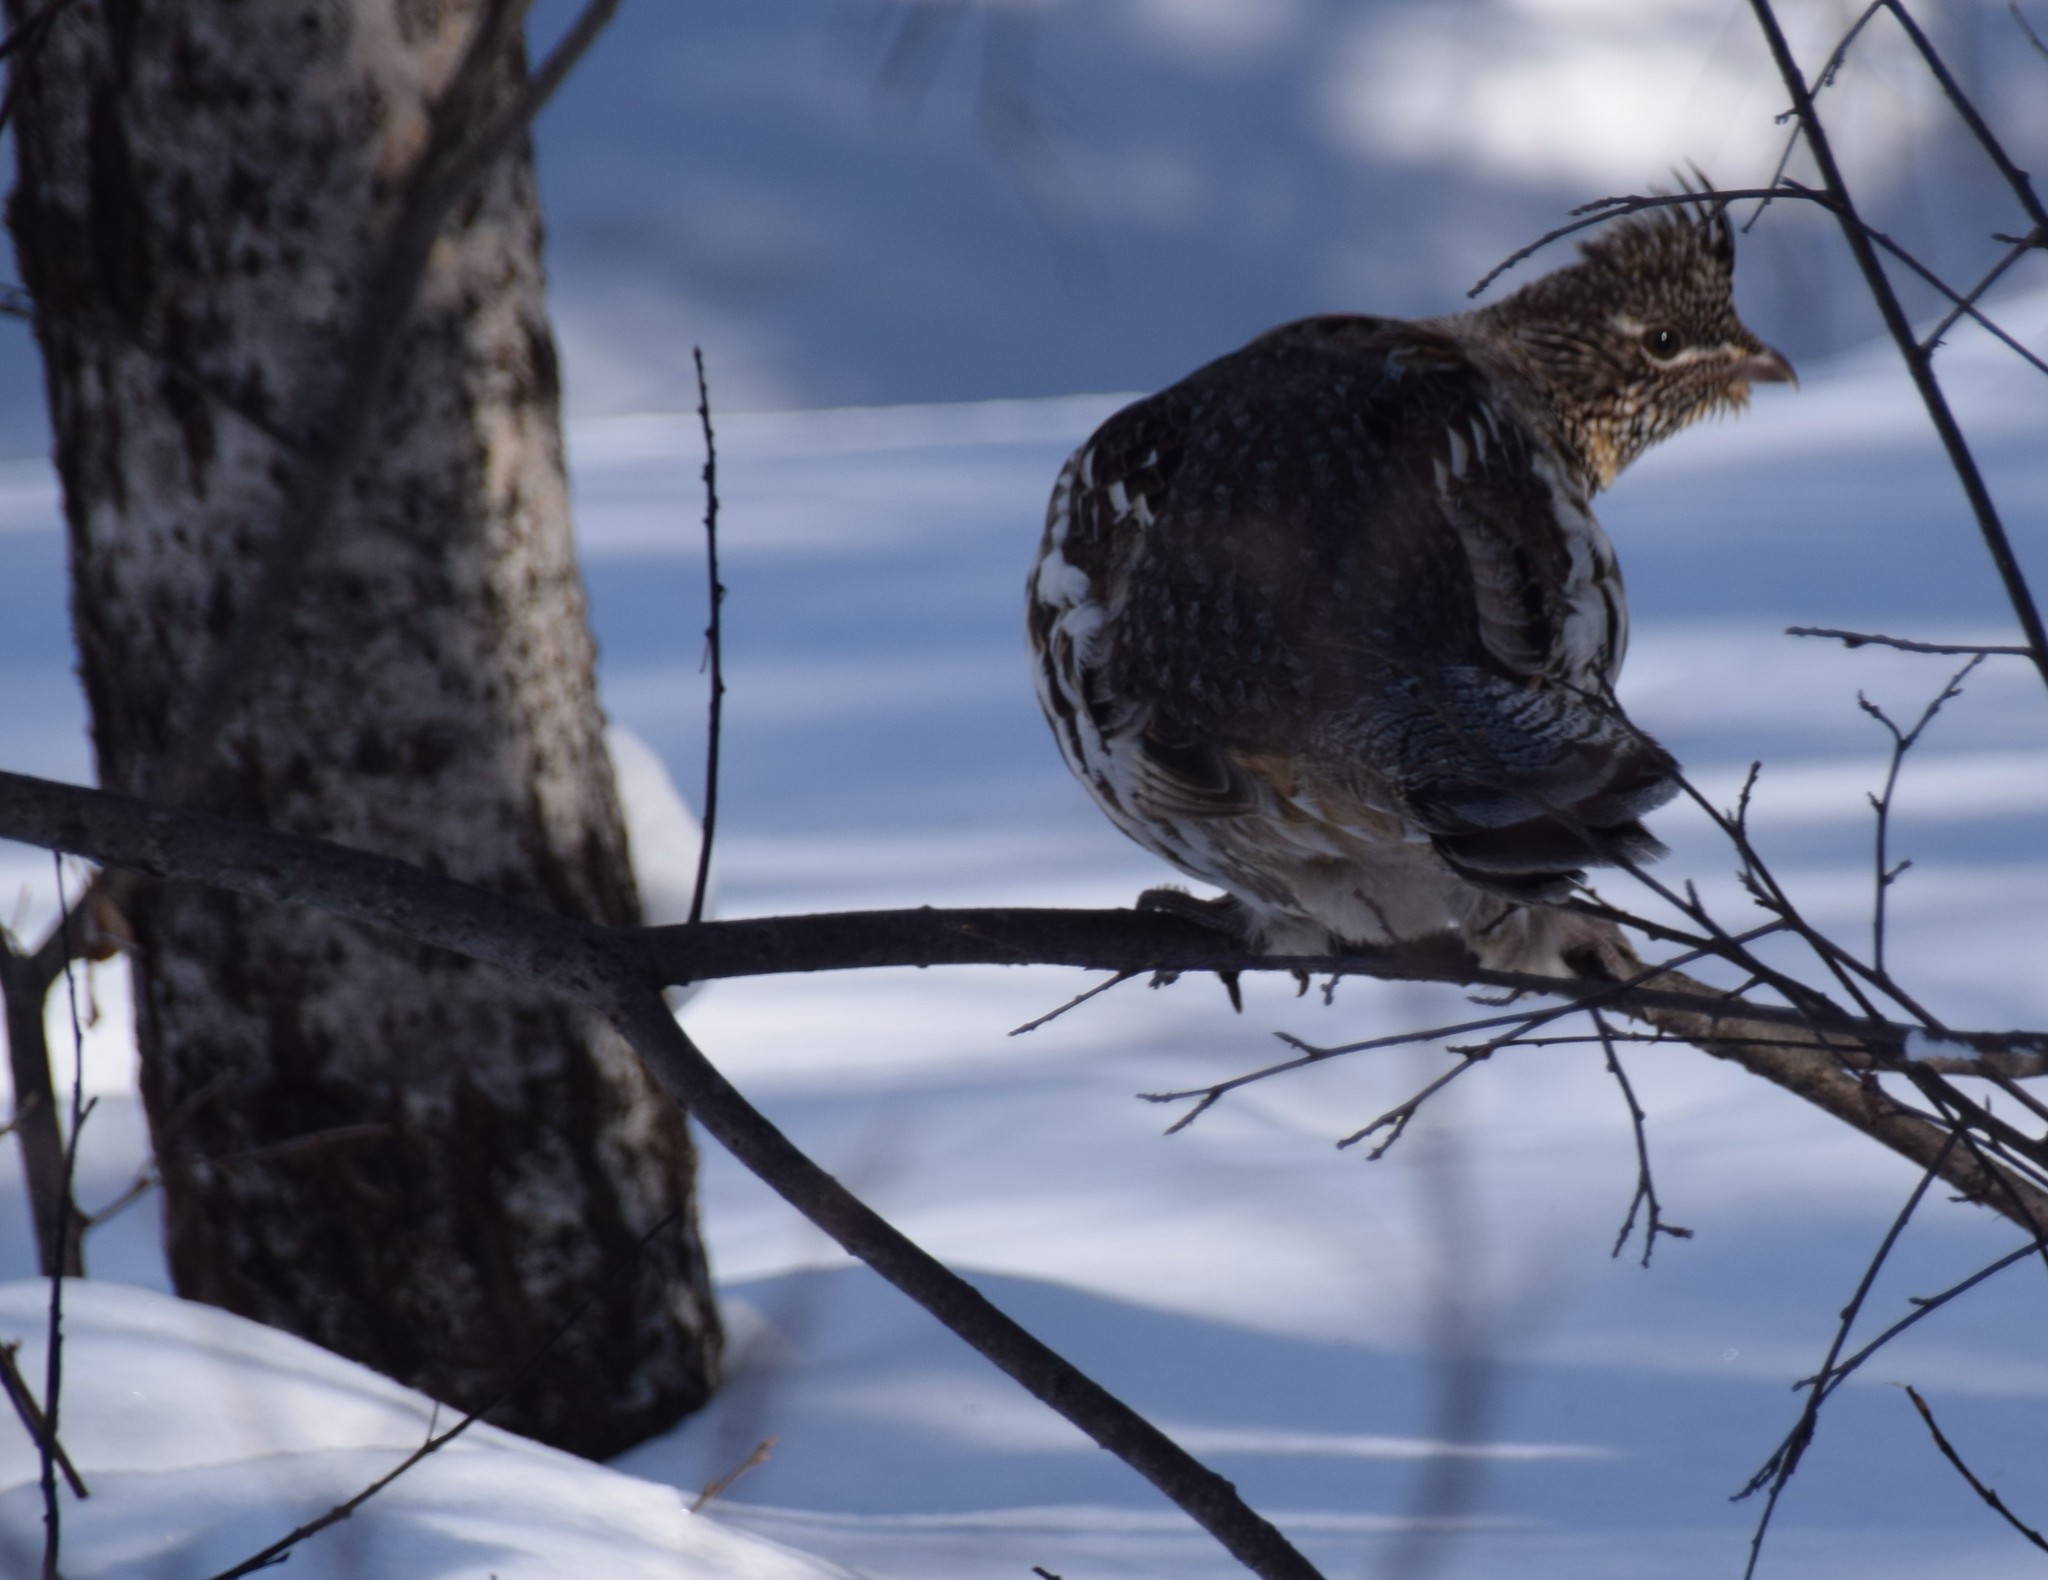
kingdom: Animalia
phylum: Chordata
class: Aves
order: Galliformes
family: Phasianidae
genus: Bonasa
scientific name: Bonasa umbellus
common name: Ruffed grouse
